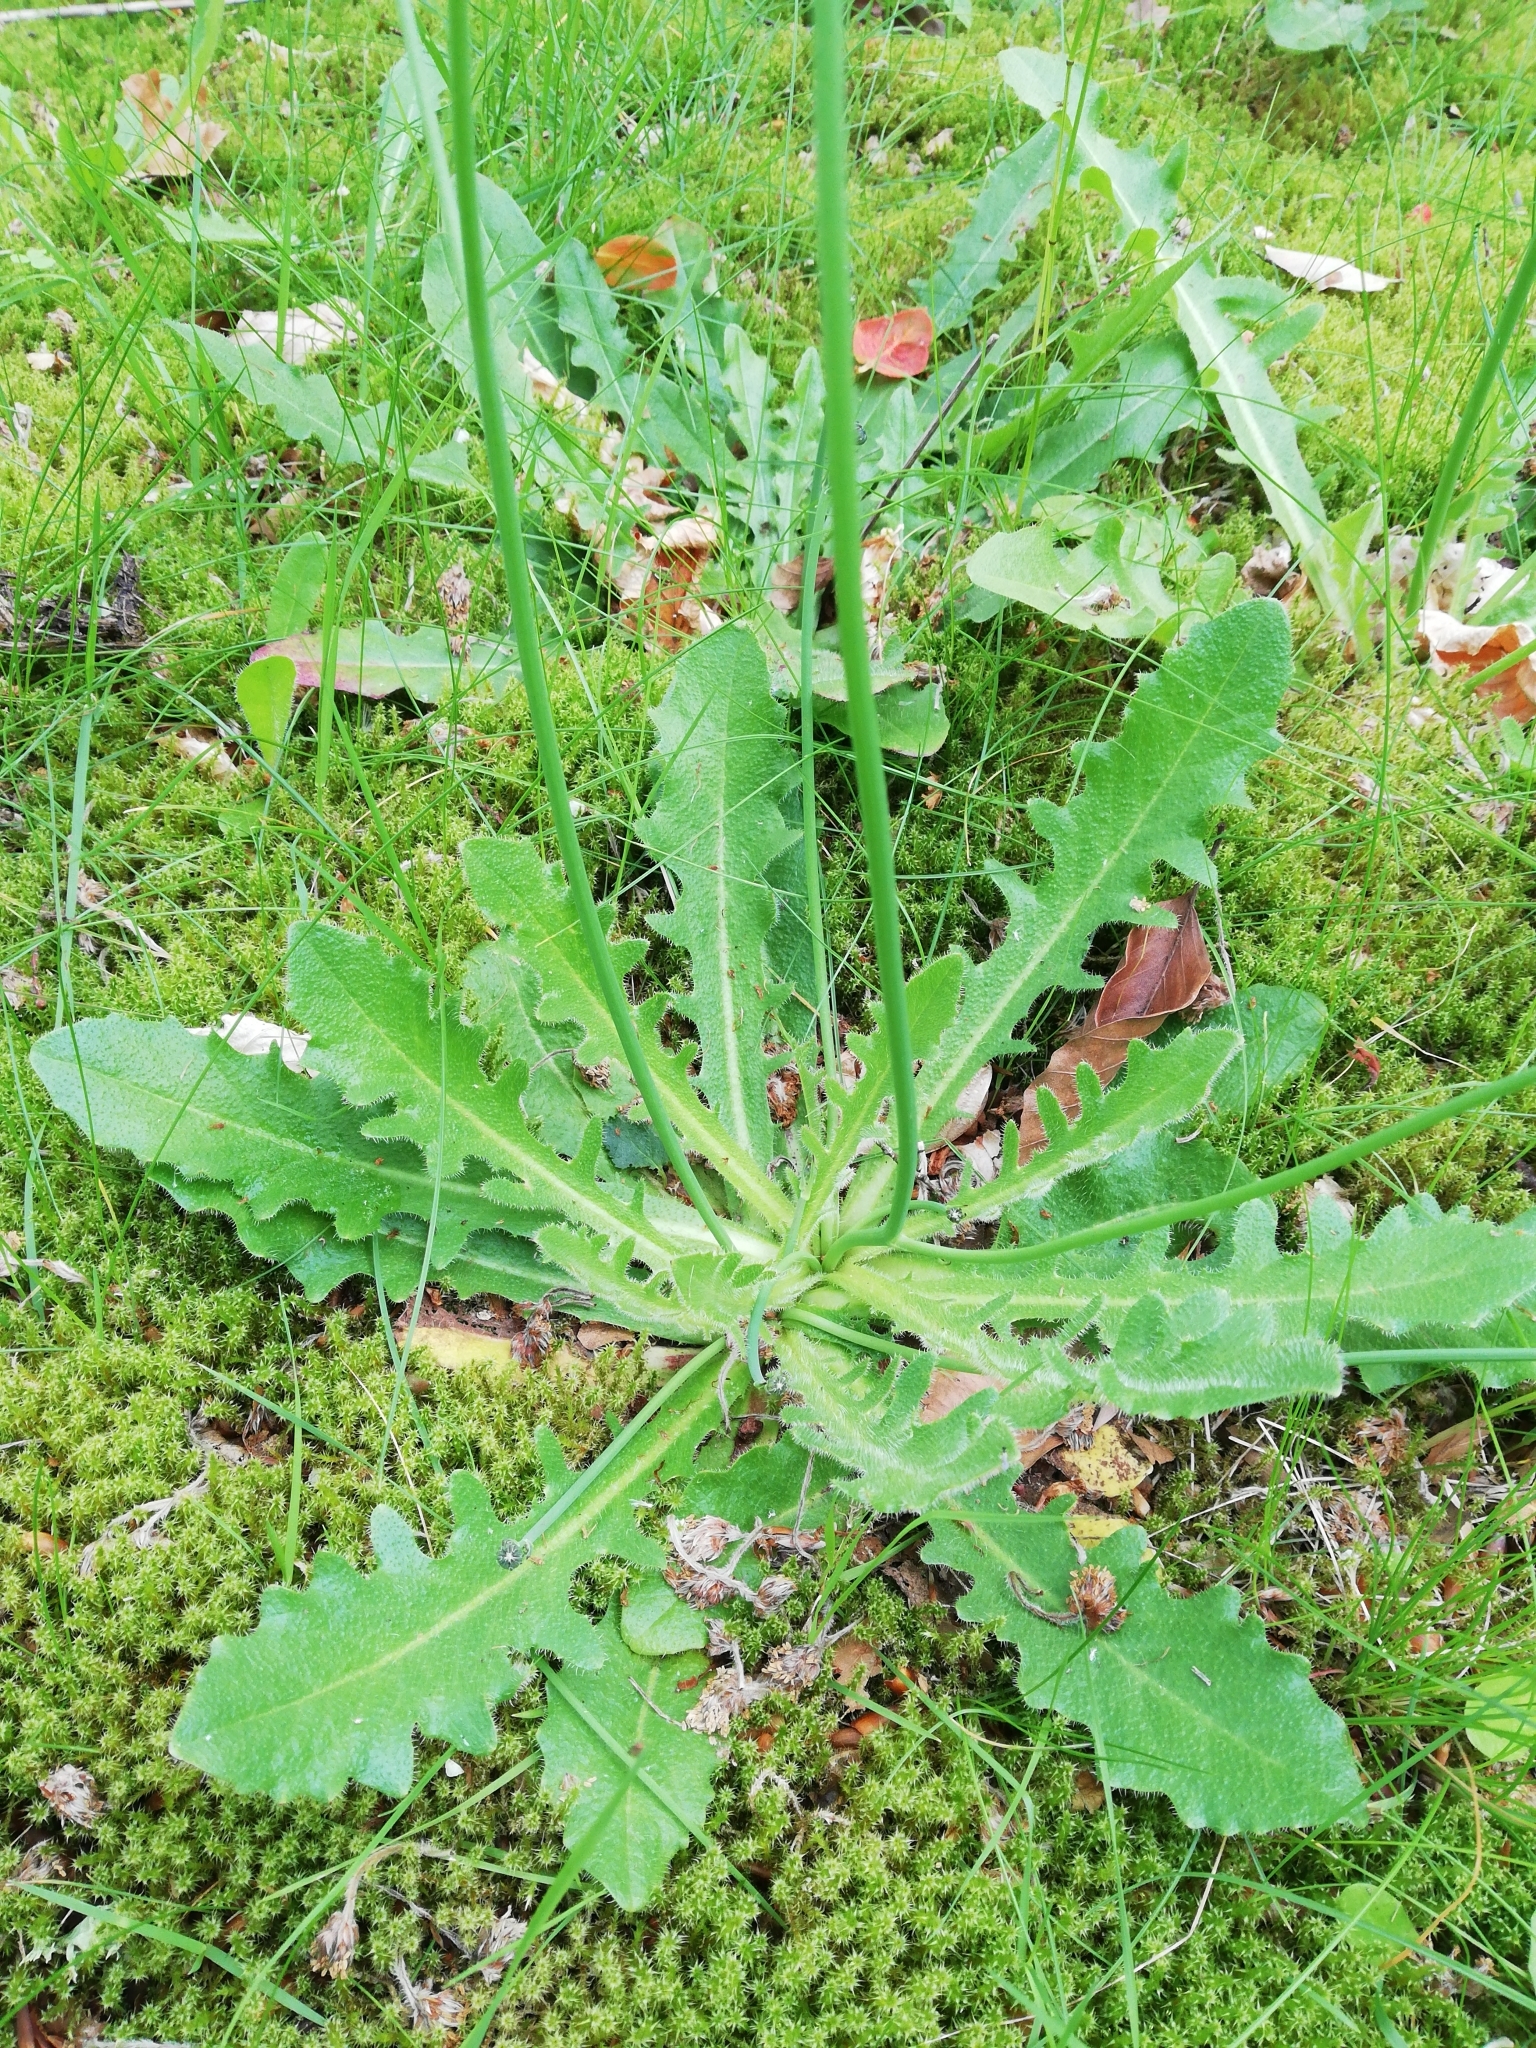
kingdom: Plantae
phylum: Tracheophyta
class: Magnoliopsida
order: Asterales
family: Asteraceae
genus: Hypochaeris
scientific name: Hypochaeris radicata
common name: Flatweed
